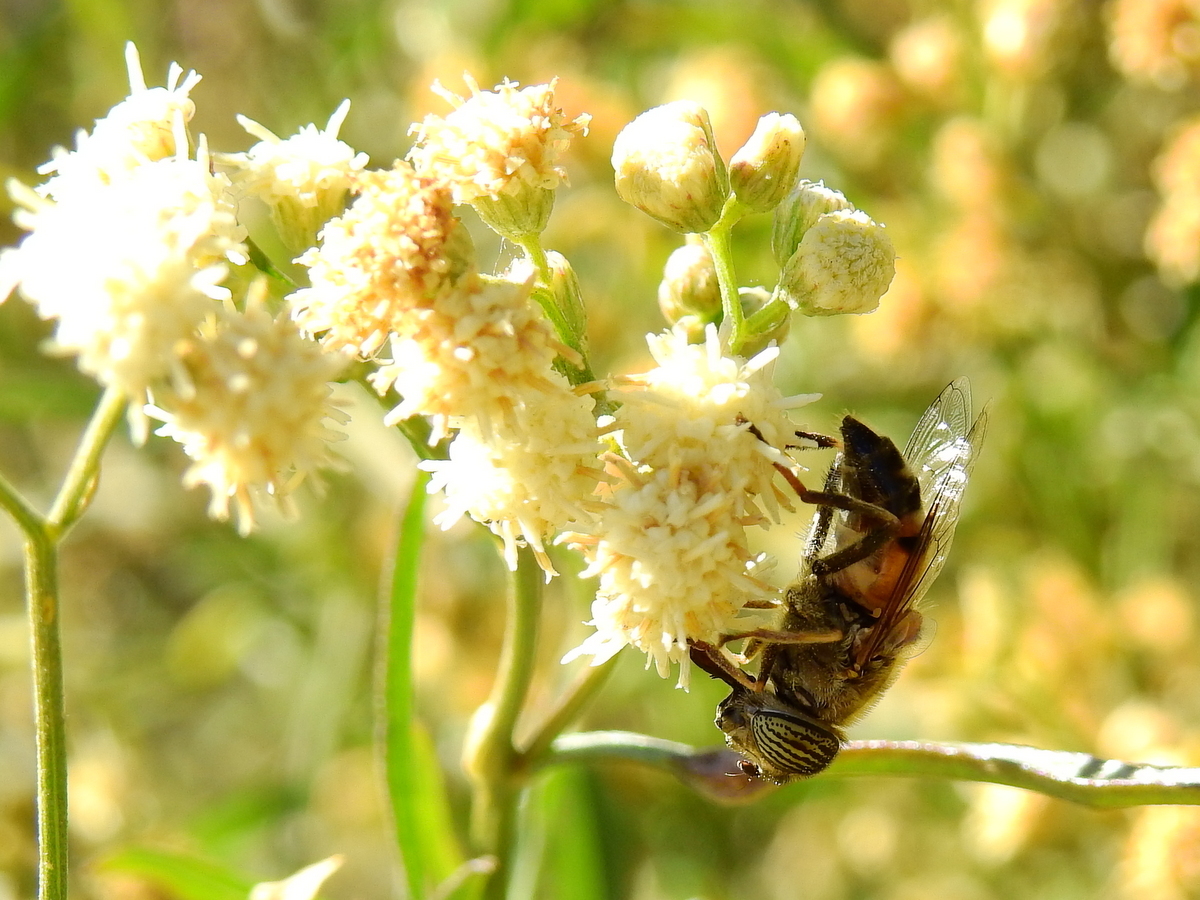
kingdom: Animalia
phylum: Arthropoda
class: Insecta
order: Diptera
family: Syrphidae
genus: Eristalinus
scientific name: Eristalinus taeniops
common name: Syrphid fly
